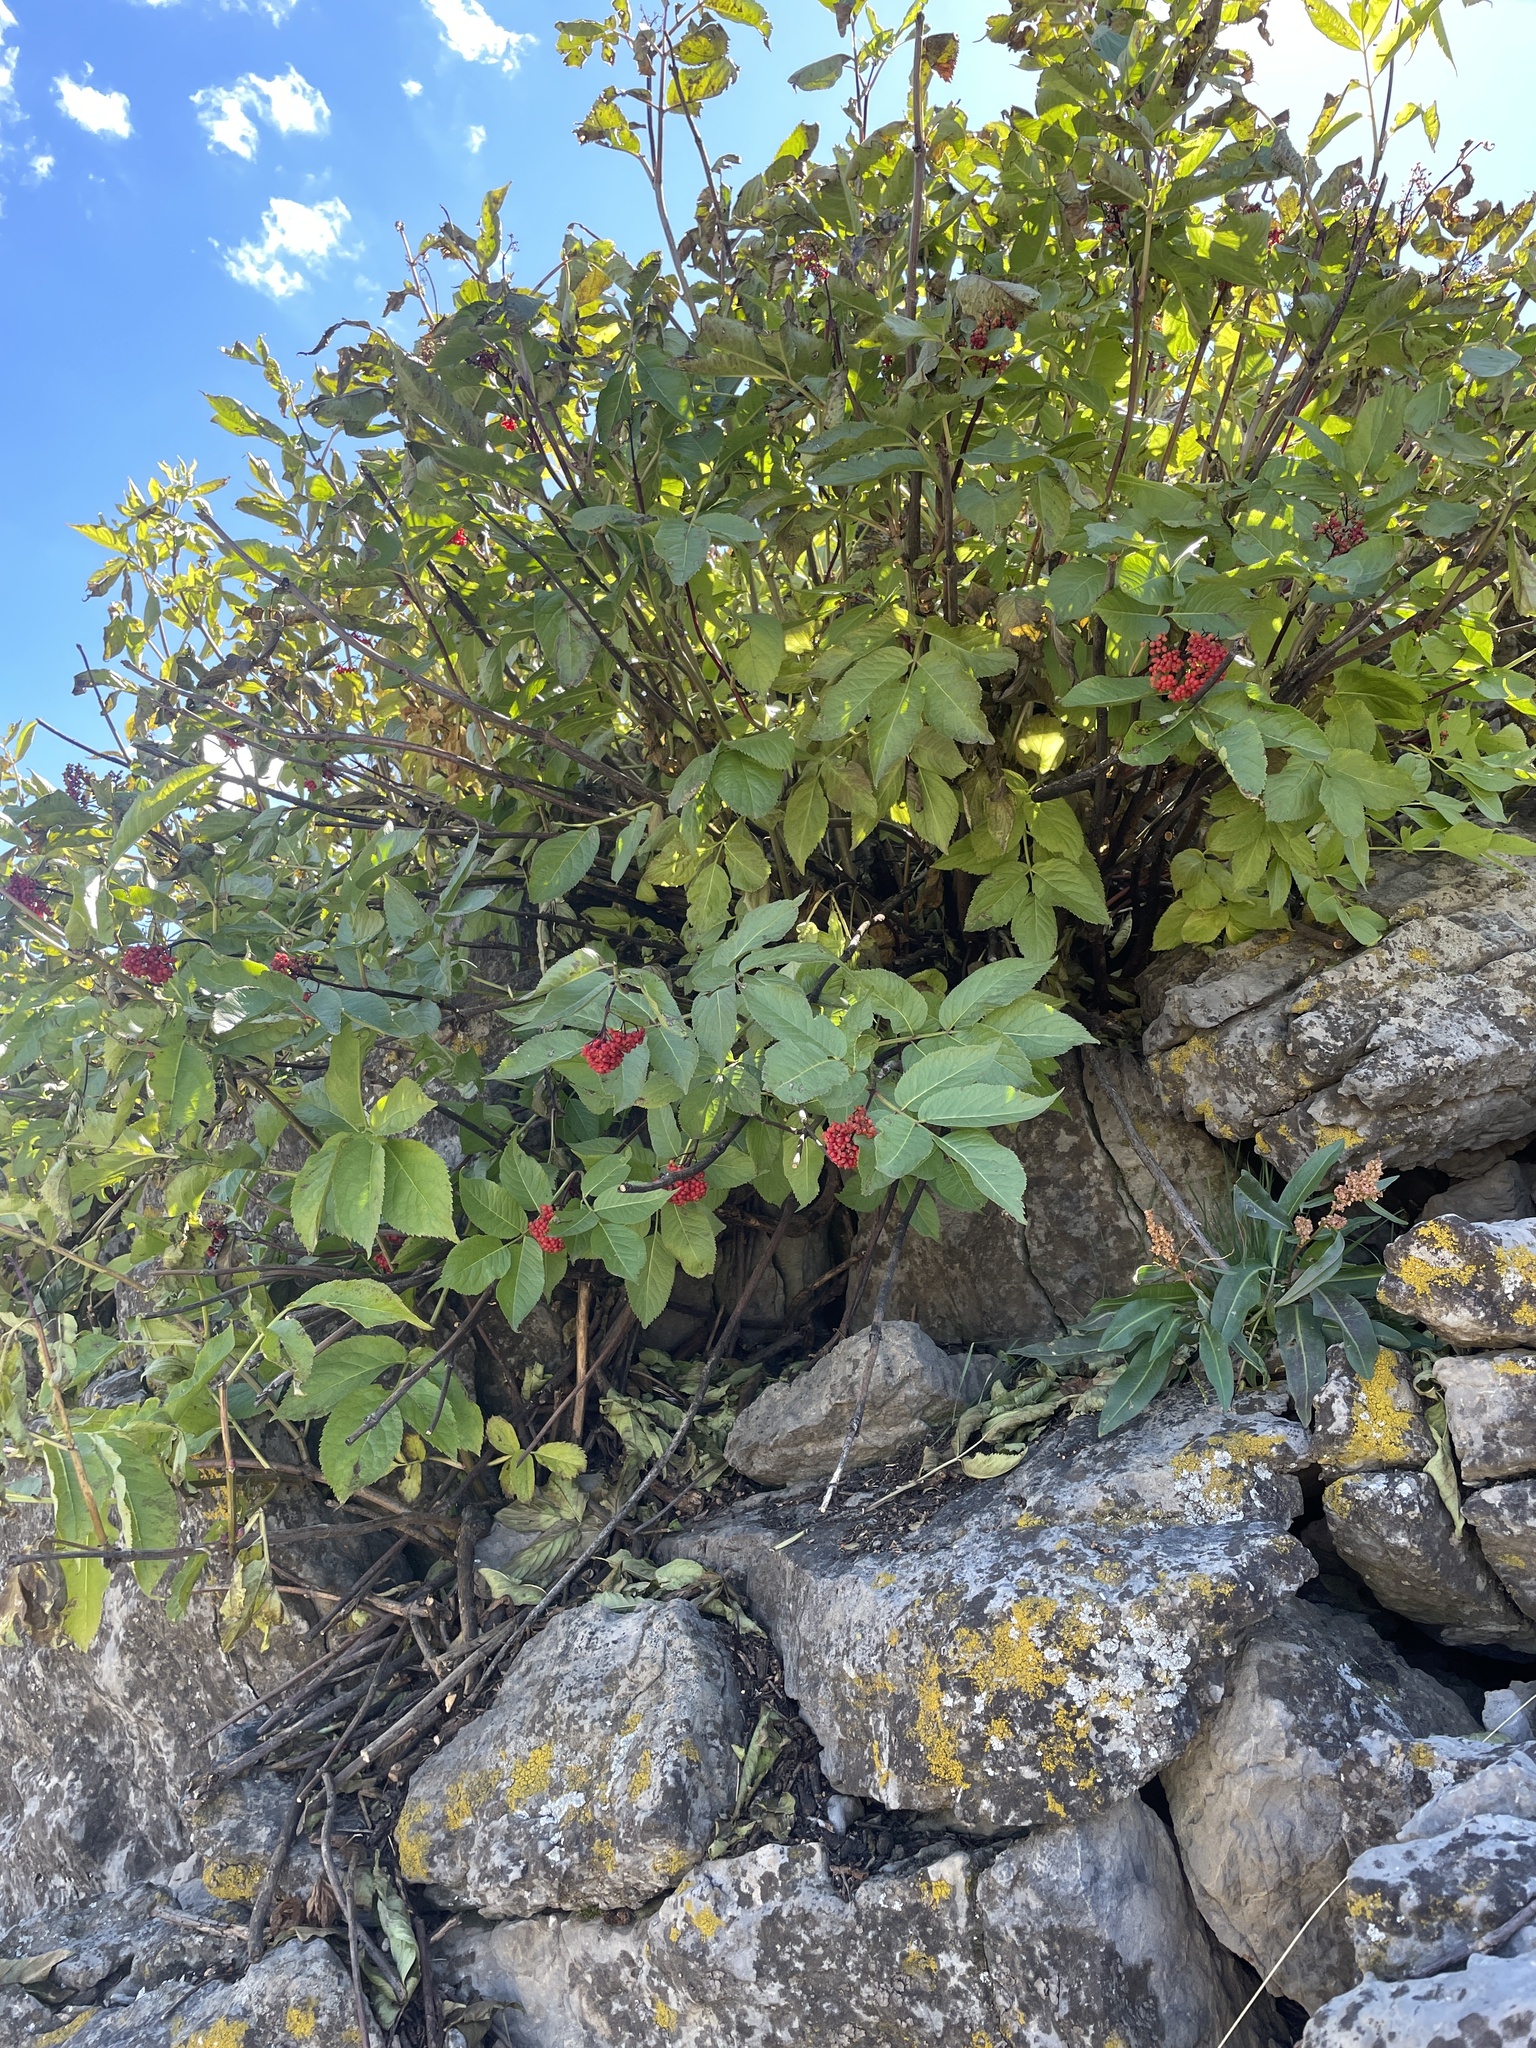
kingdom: Plantae
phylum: Tracheophyta
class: Magnoliopsida
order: Dipsacales
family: Viburnaceae
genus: Sambucus
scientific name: Sambucus racemosa
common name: Red-berried elder
